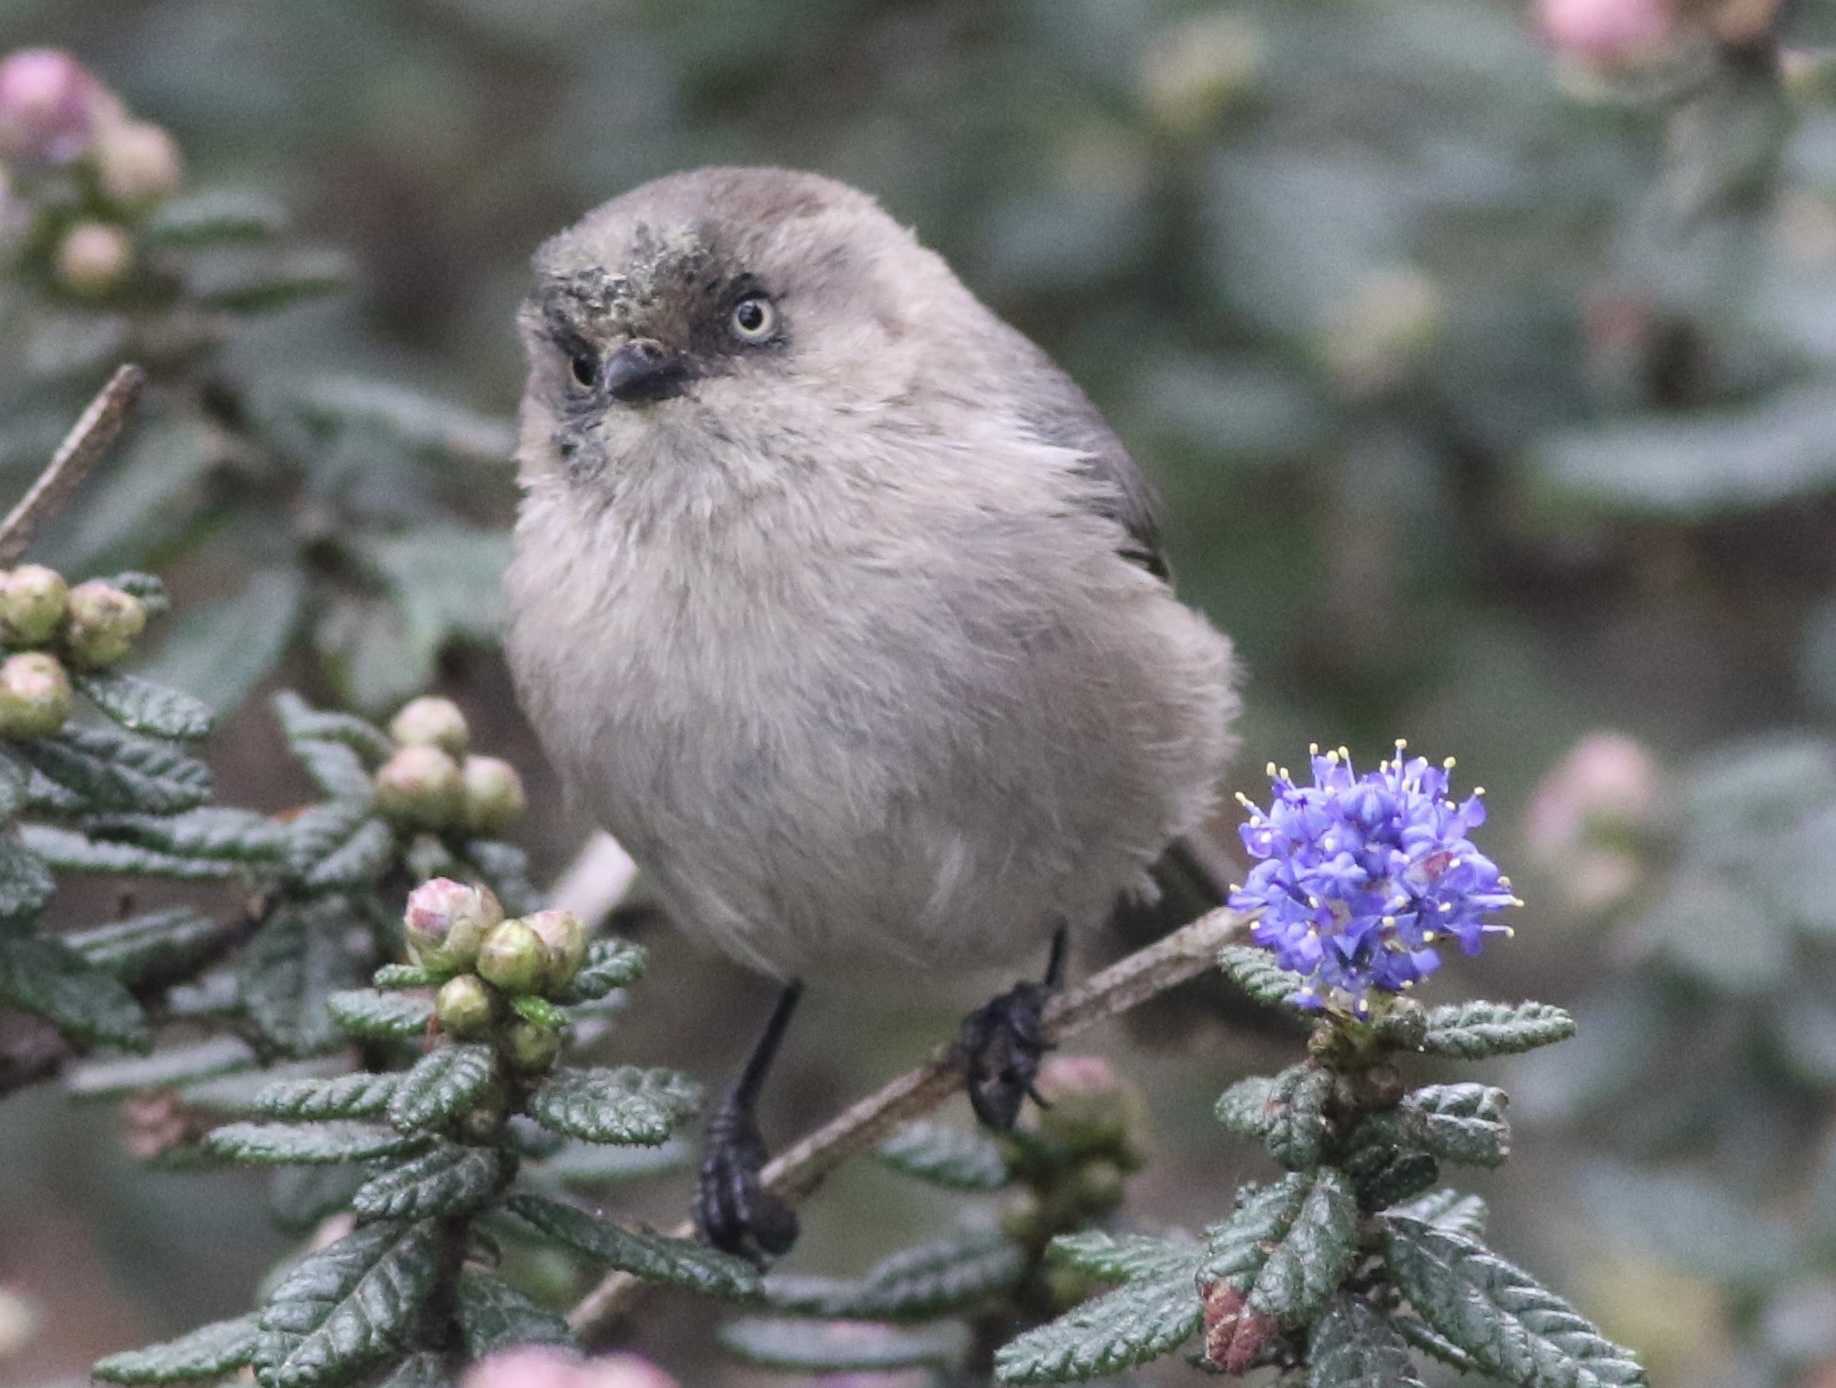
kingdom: Animalia
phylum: Chordata
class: Aves
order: Passeriformes
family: Aegithalidae
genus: Psaltriparus
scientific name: Psaltriparus minimus
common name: American bushtit
